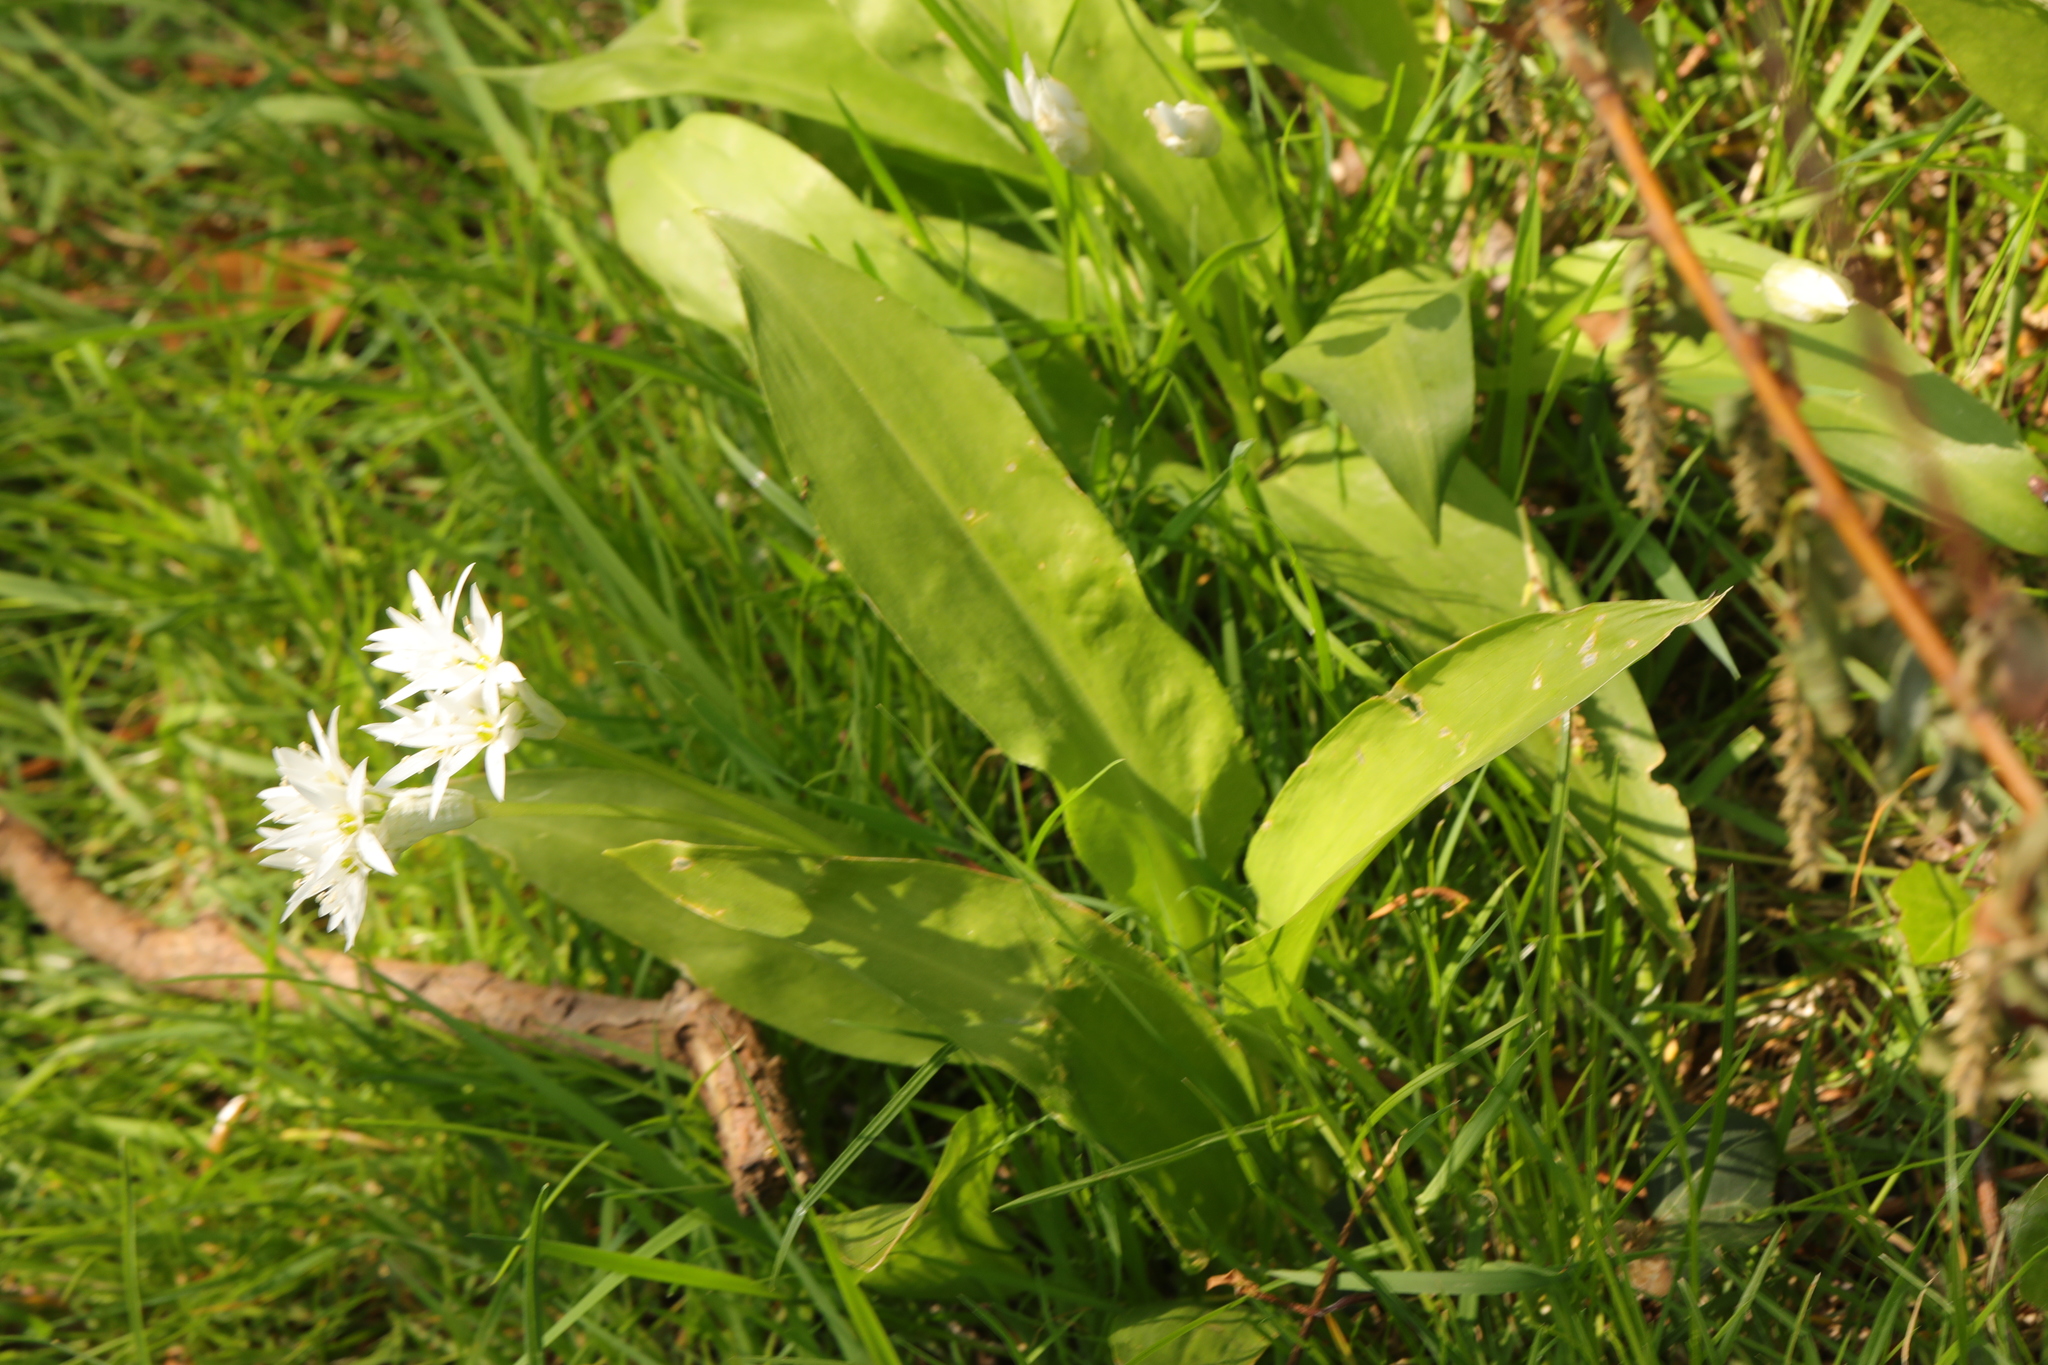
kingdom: Plantae
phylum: Tracheophyta
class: Liliopsida
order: Asparagales
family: Amaryllidaceae
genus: Allium
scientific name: Allium ursinum
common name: Ramsons
